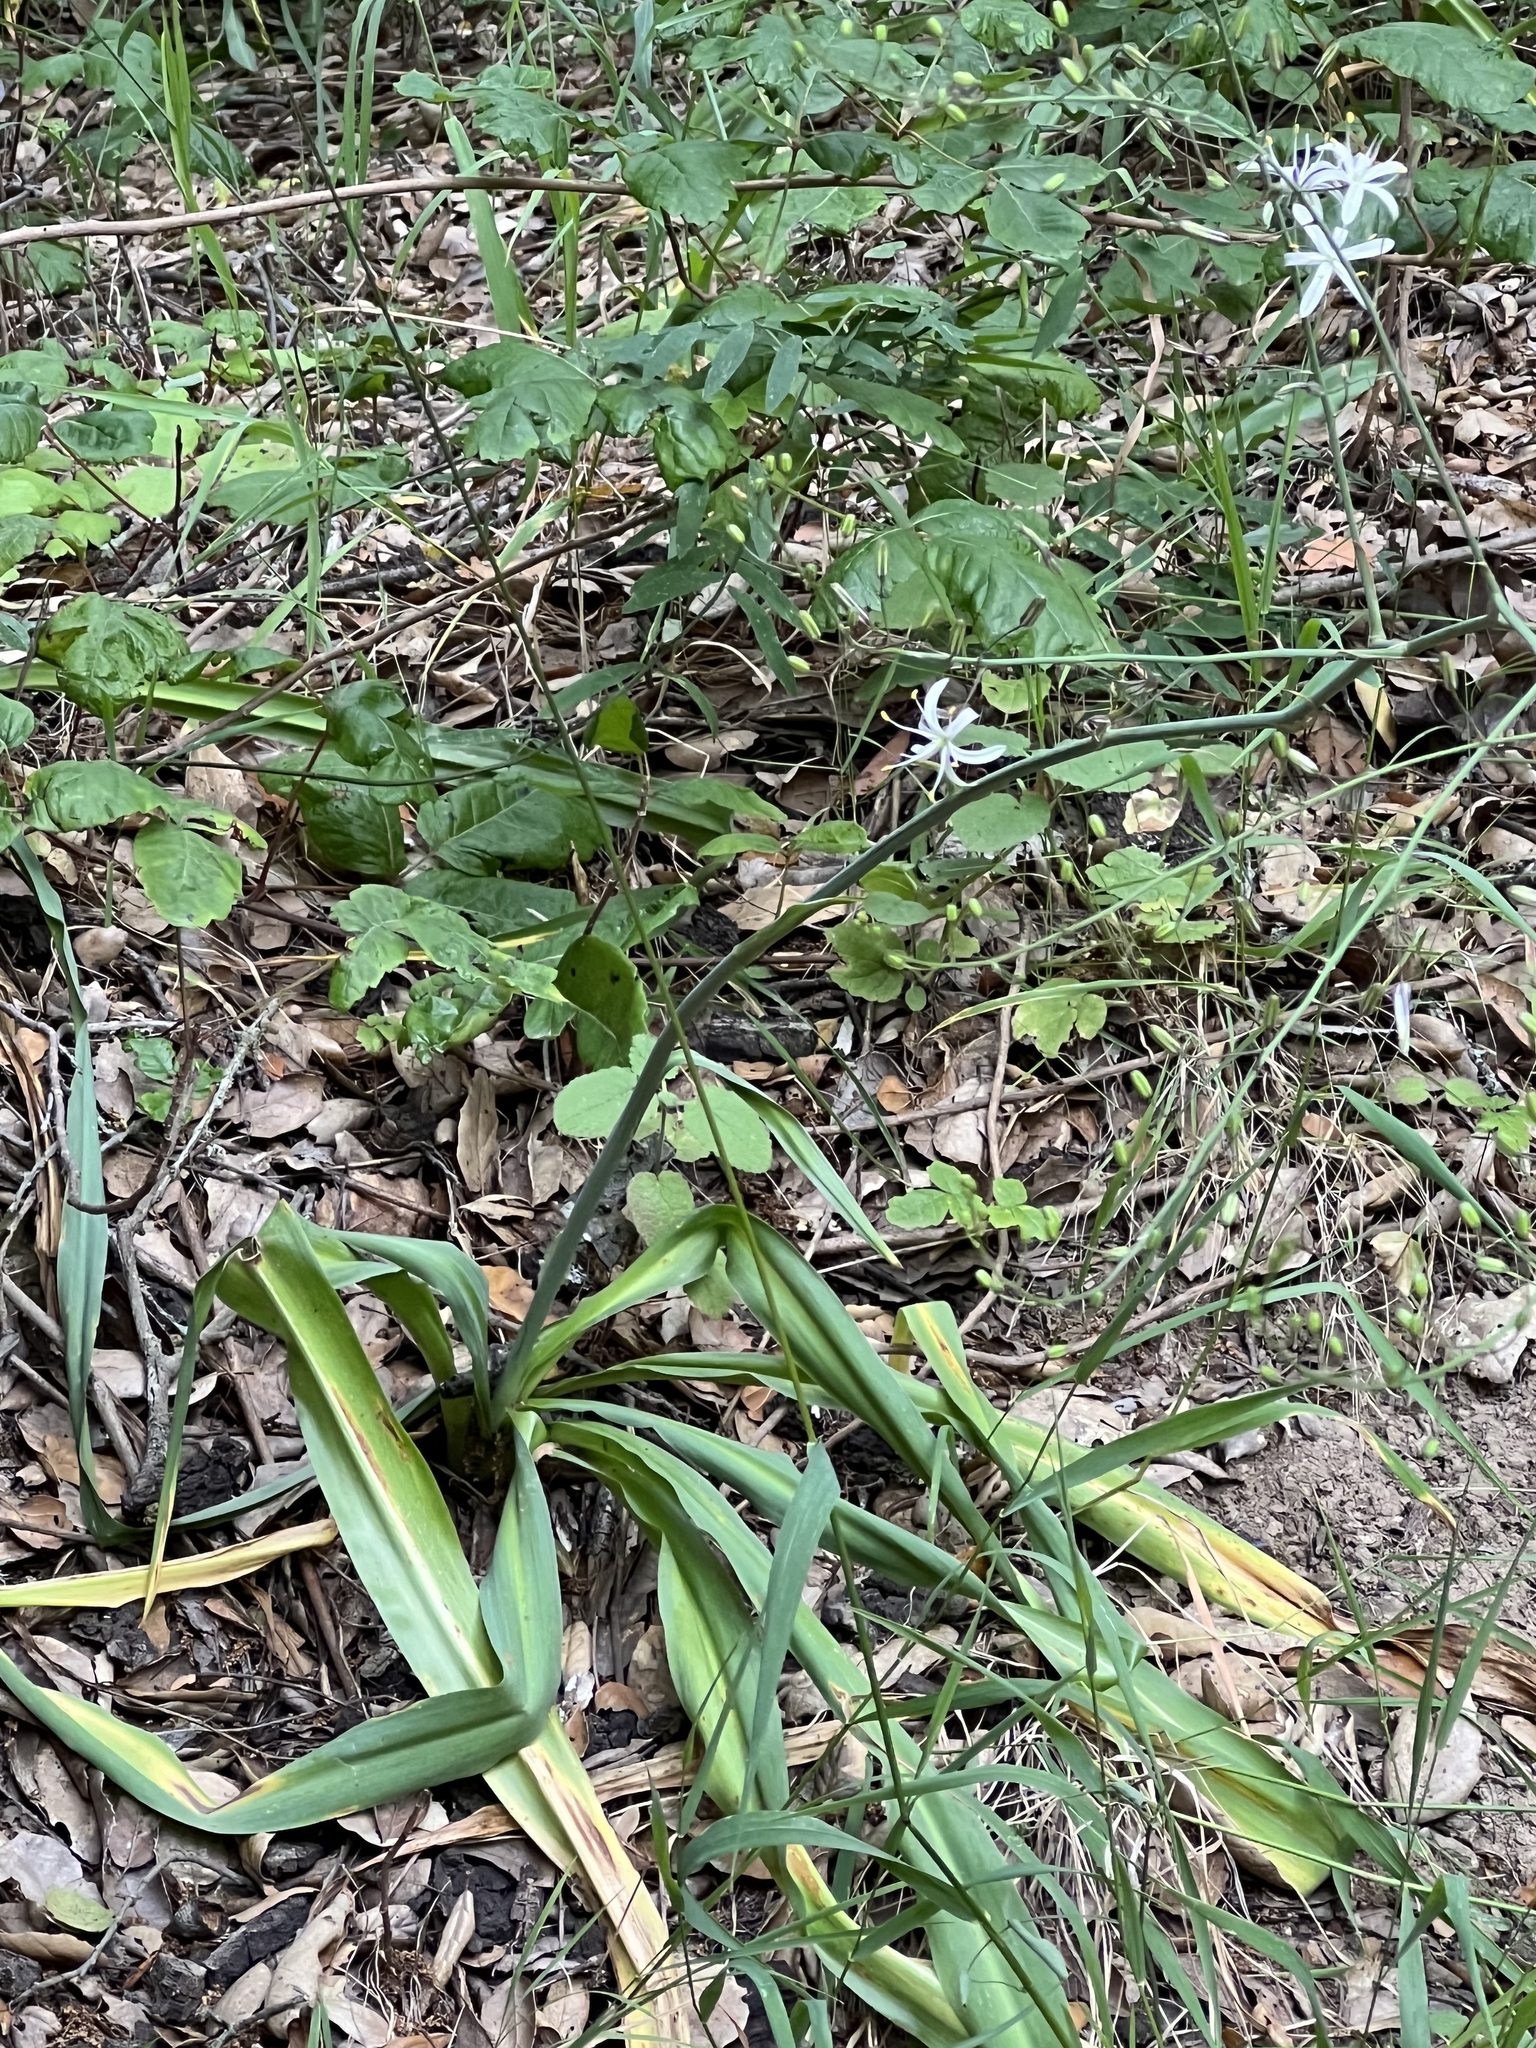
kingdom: Plantae
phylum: Tracheophyta
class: Liliopsida
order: Liliales
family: Liliaceae
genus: Calochortus
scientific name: Calochortus albus
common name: Fairy-lantern
